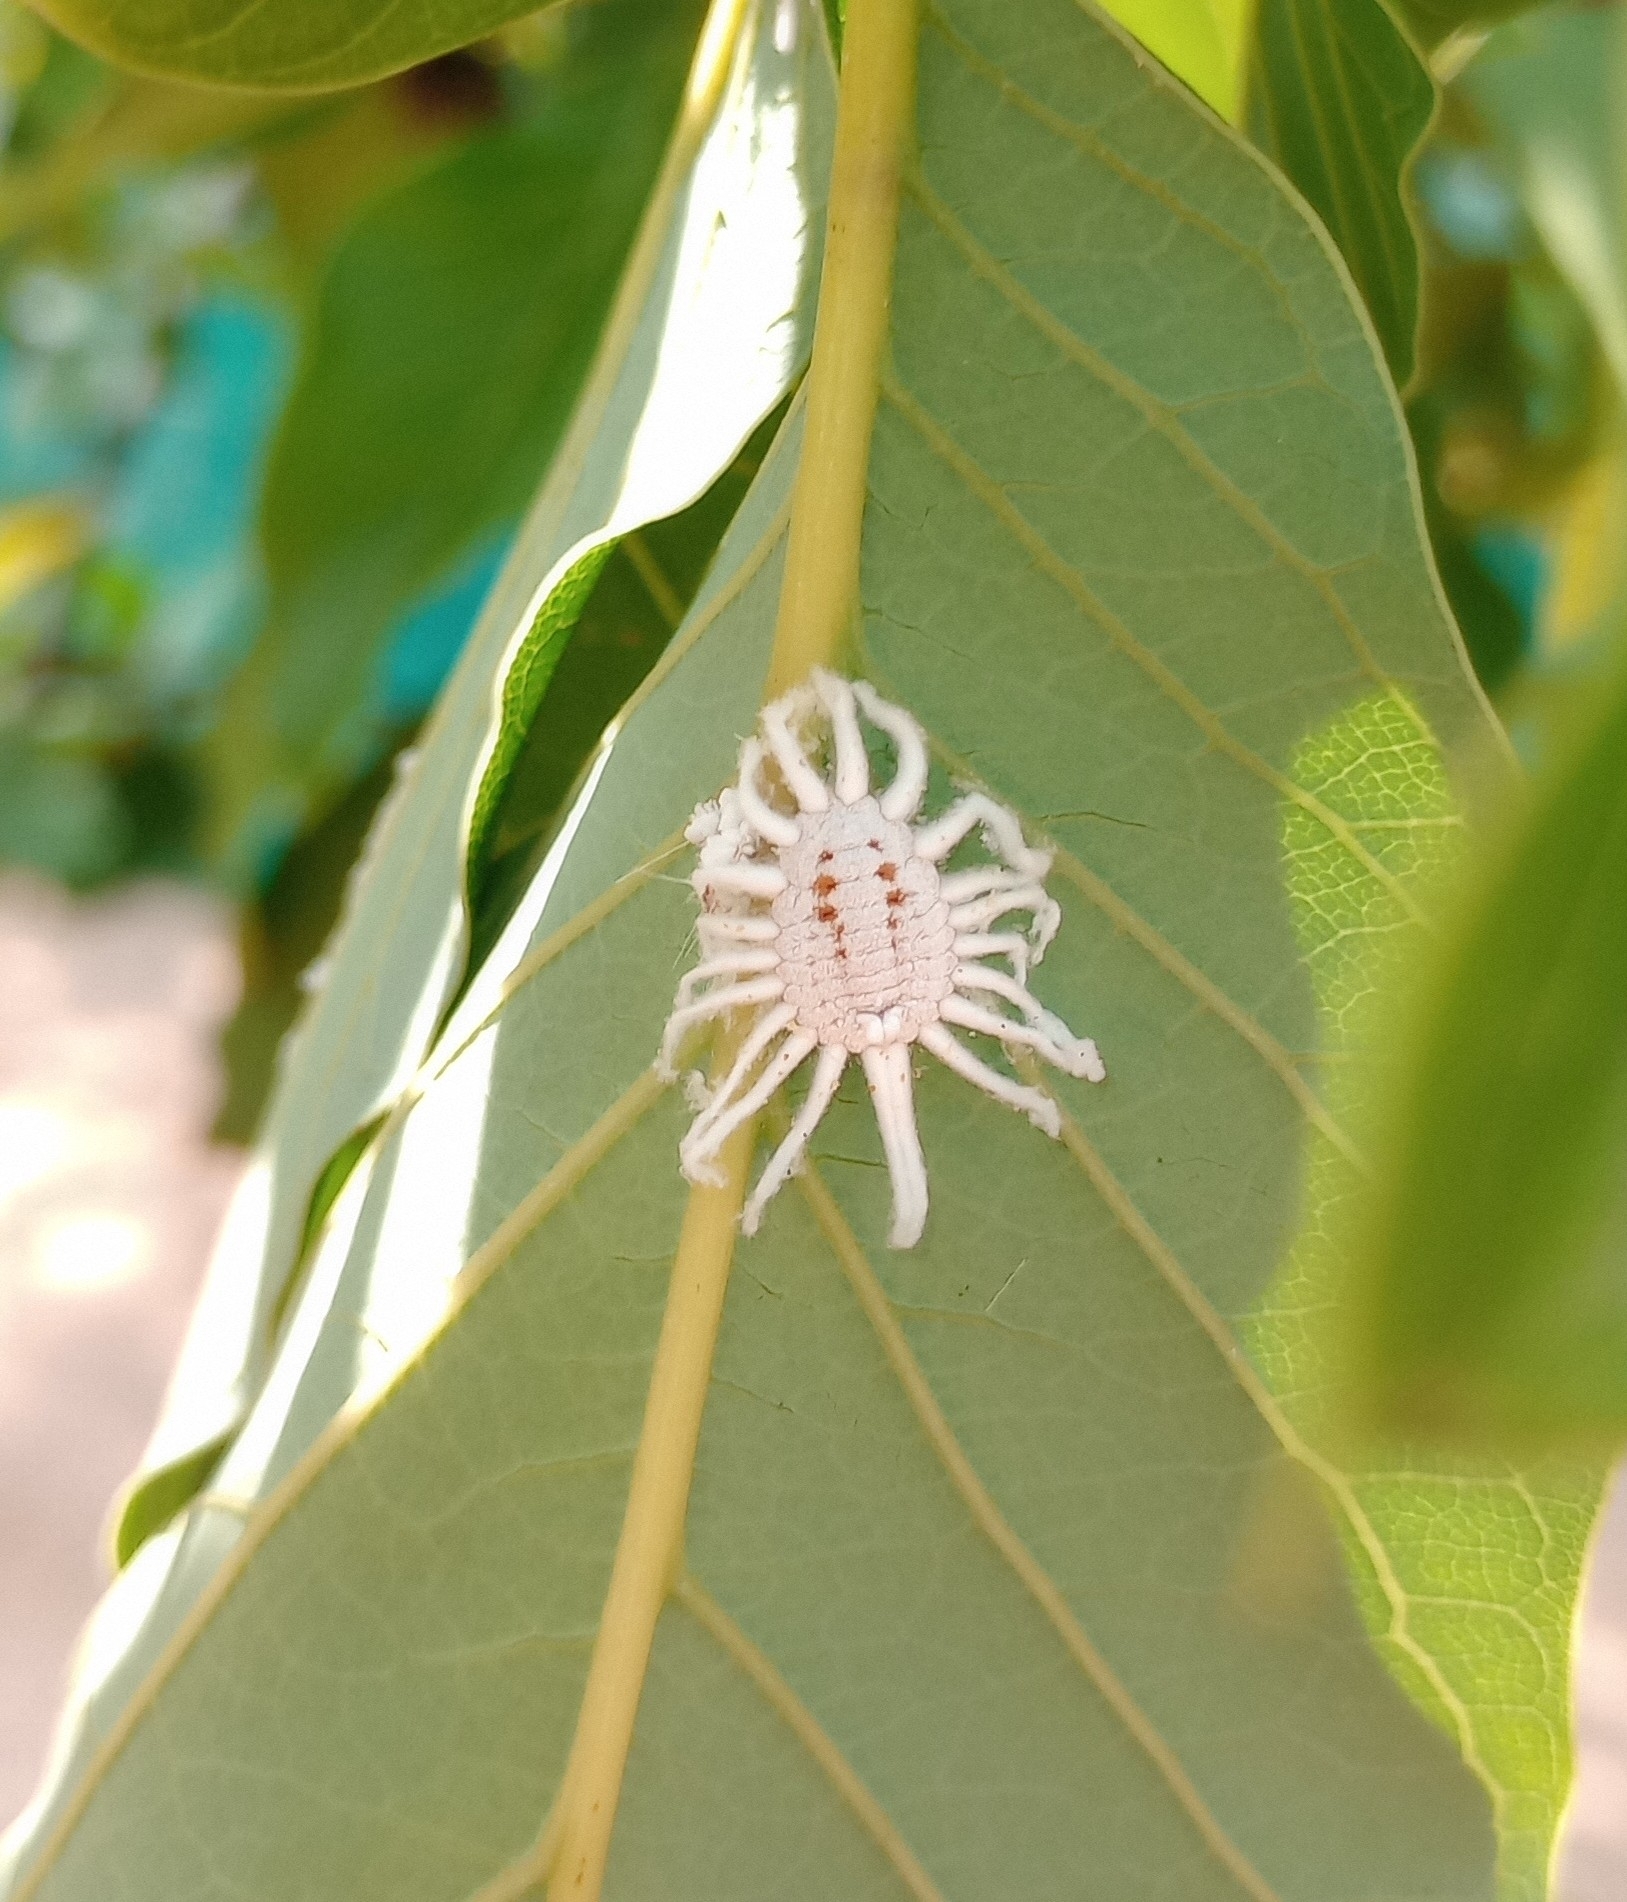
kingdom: Animalia
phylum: Arthropoda
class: Insecta
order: Hemiptera
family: Margarodidae
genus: Icerya
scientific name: Icerya aegyptiaca
